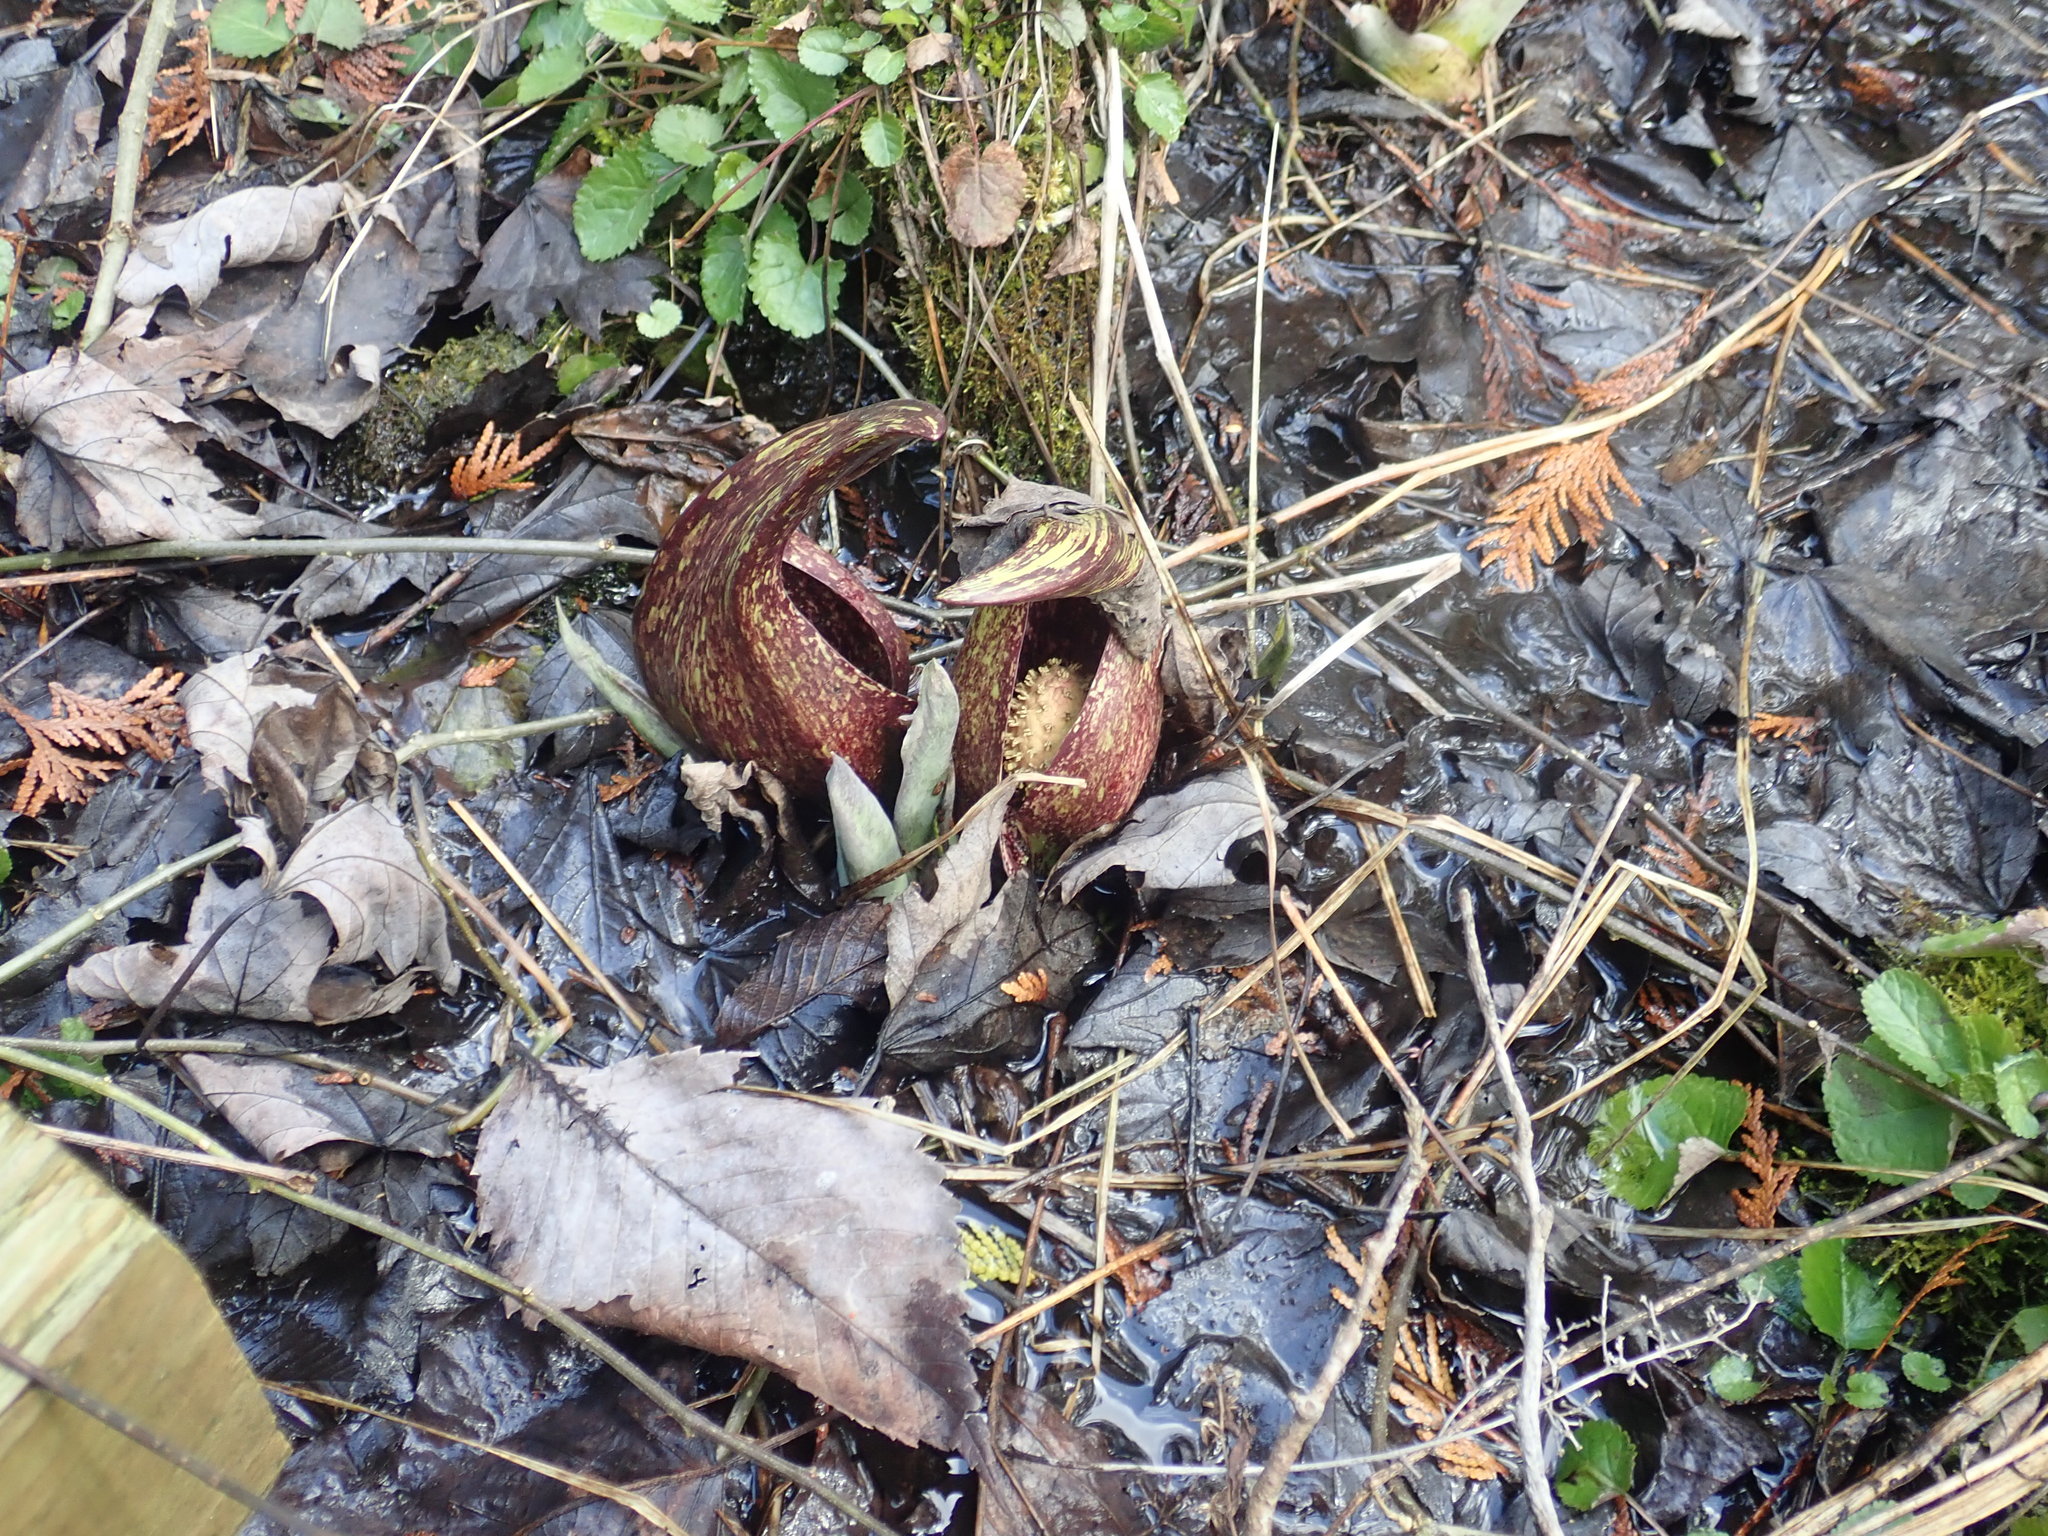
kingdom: Plantae
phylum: Tracheophyta
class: Liliopsida
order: Alismatales
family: Araceae
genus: Symplocarpus
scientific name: Symplocarpus foetidus
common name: Eastern skunk cabbage
